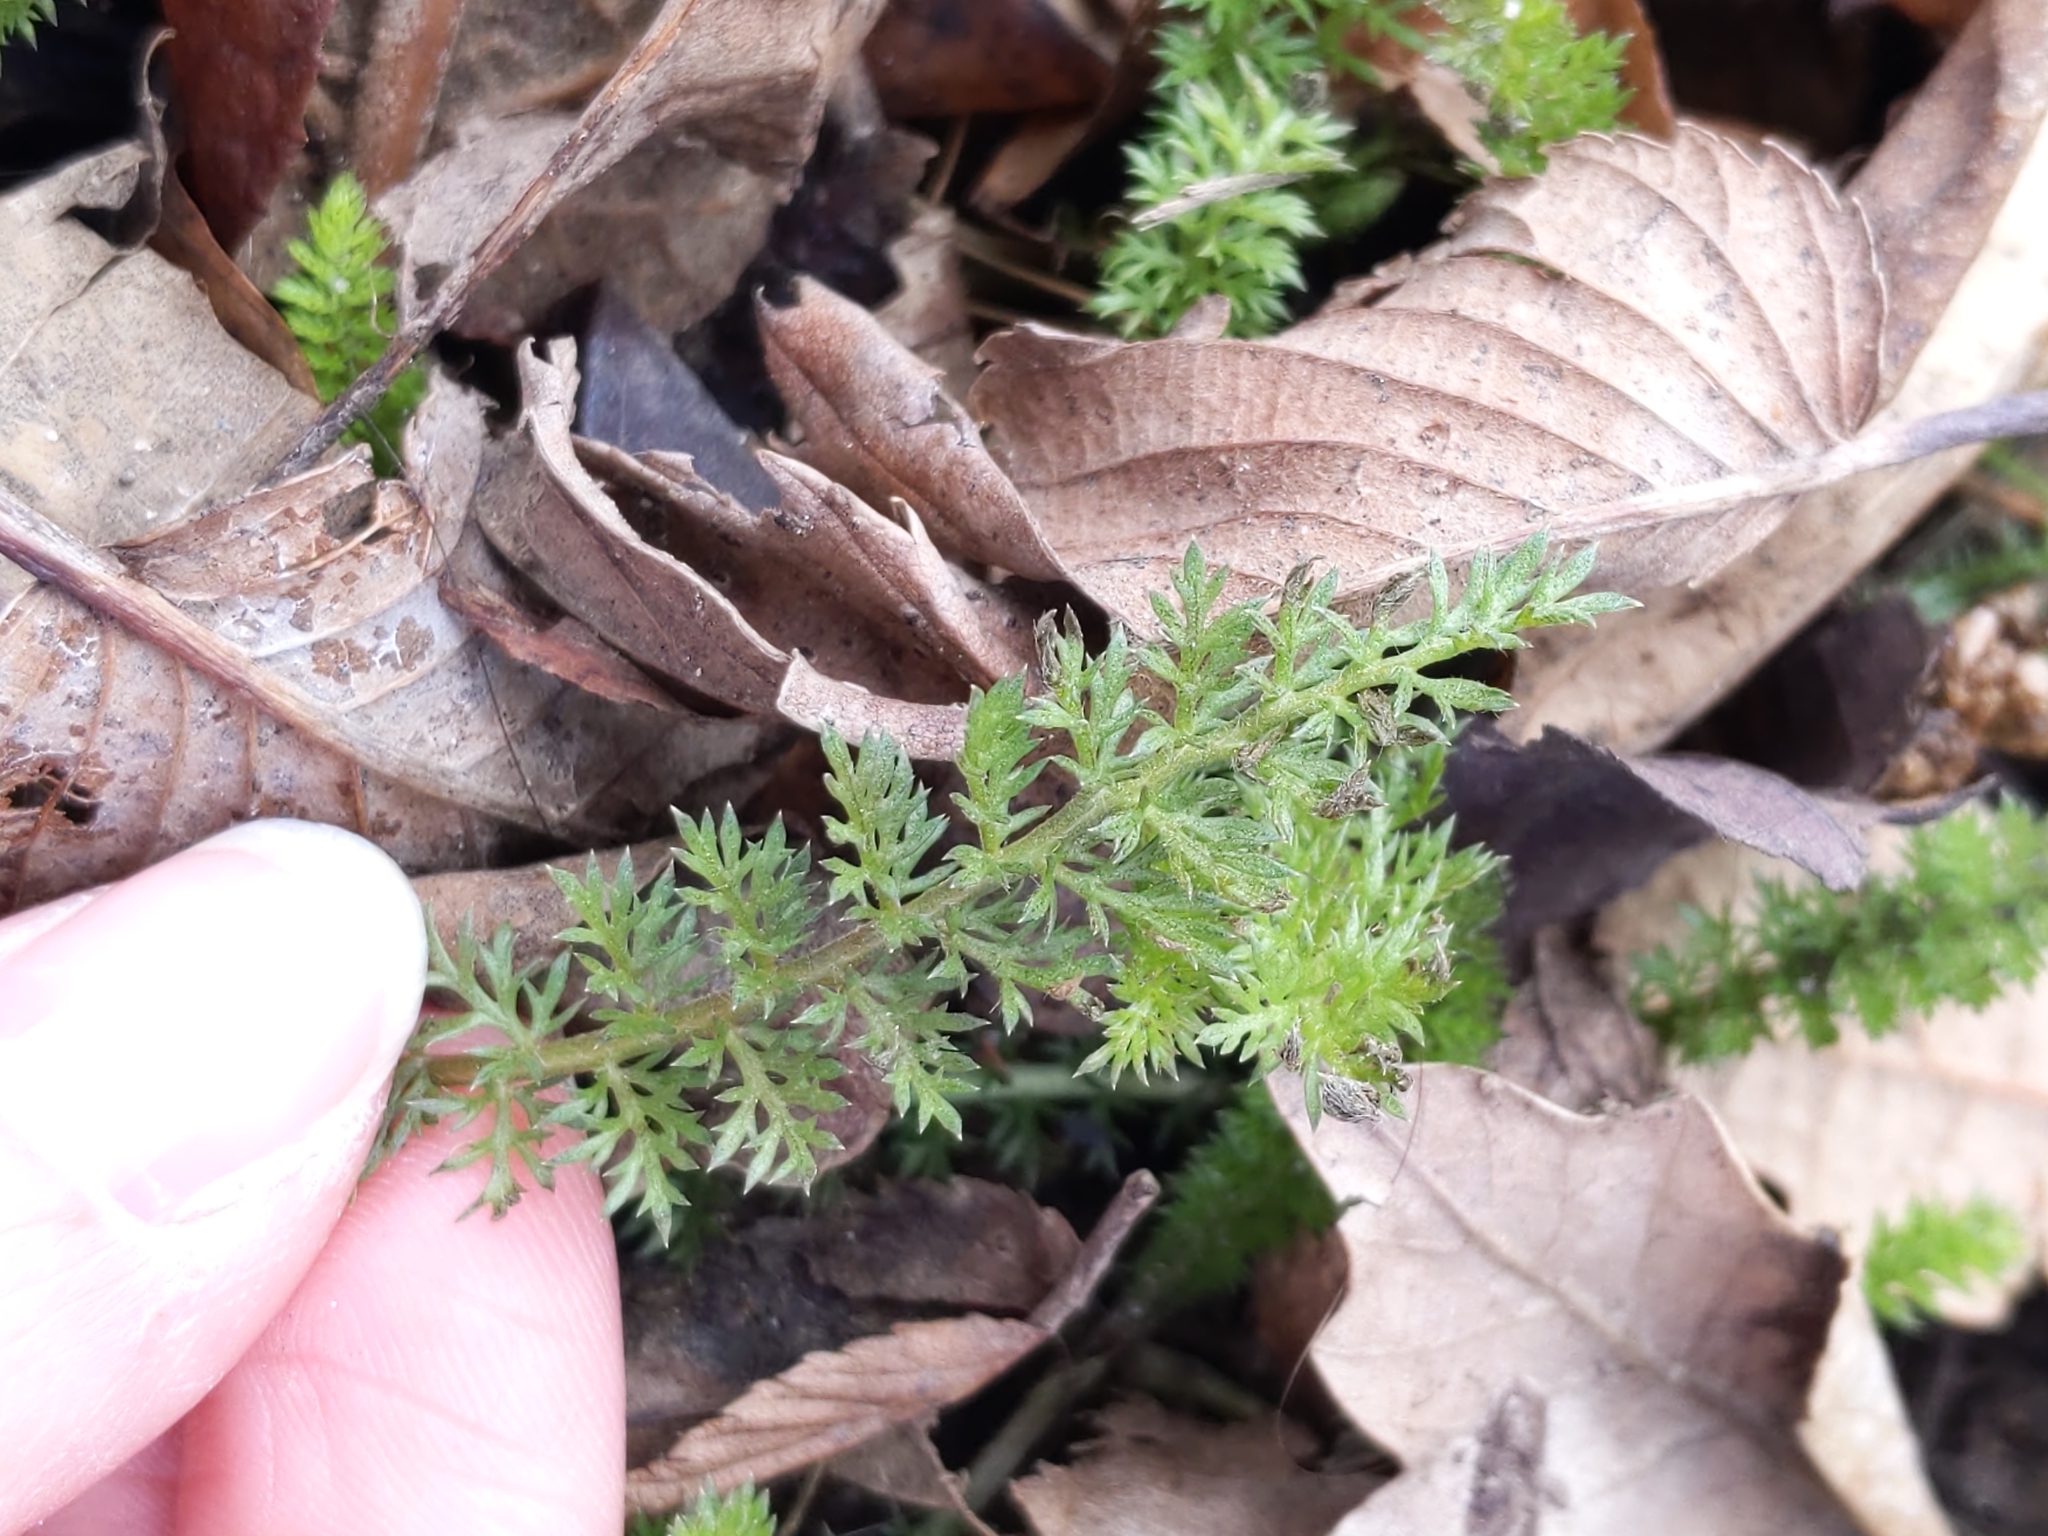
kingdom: Plantae
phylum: Tracheophyta
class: Magnoliopsida
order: Asterales
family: Asteraceae
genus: Achillea
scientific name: Achillea millefolium
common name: Yarrow
